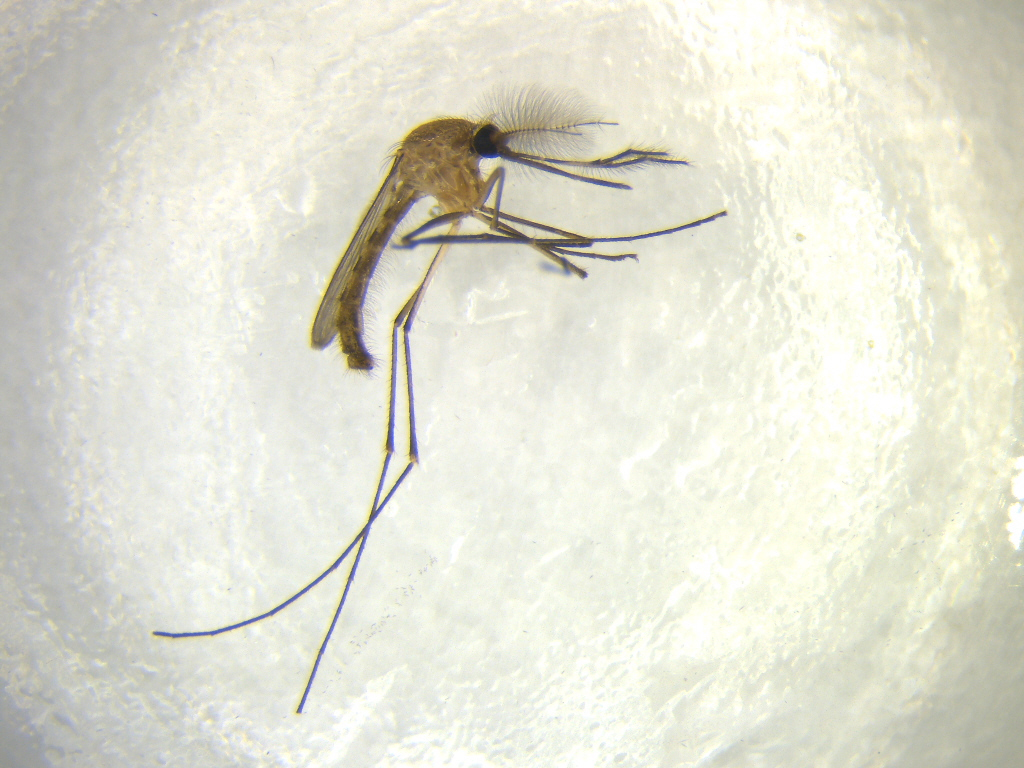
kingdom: Animalia
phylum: Arthropoda
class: Insecta
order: Diptera
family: Culicidae
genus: Culex
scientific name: Culex quinquefasciatus
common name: Southern house mosquito
